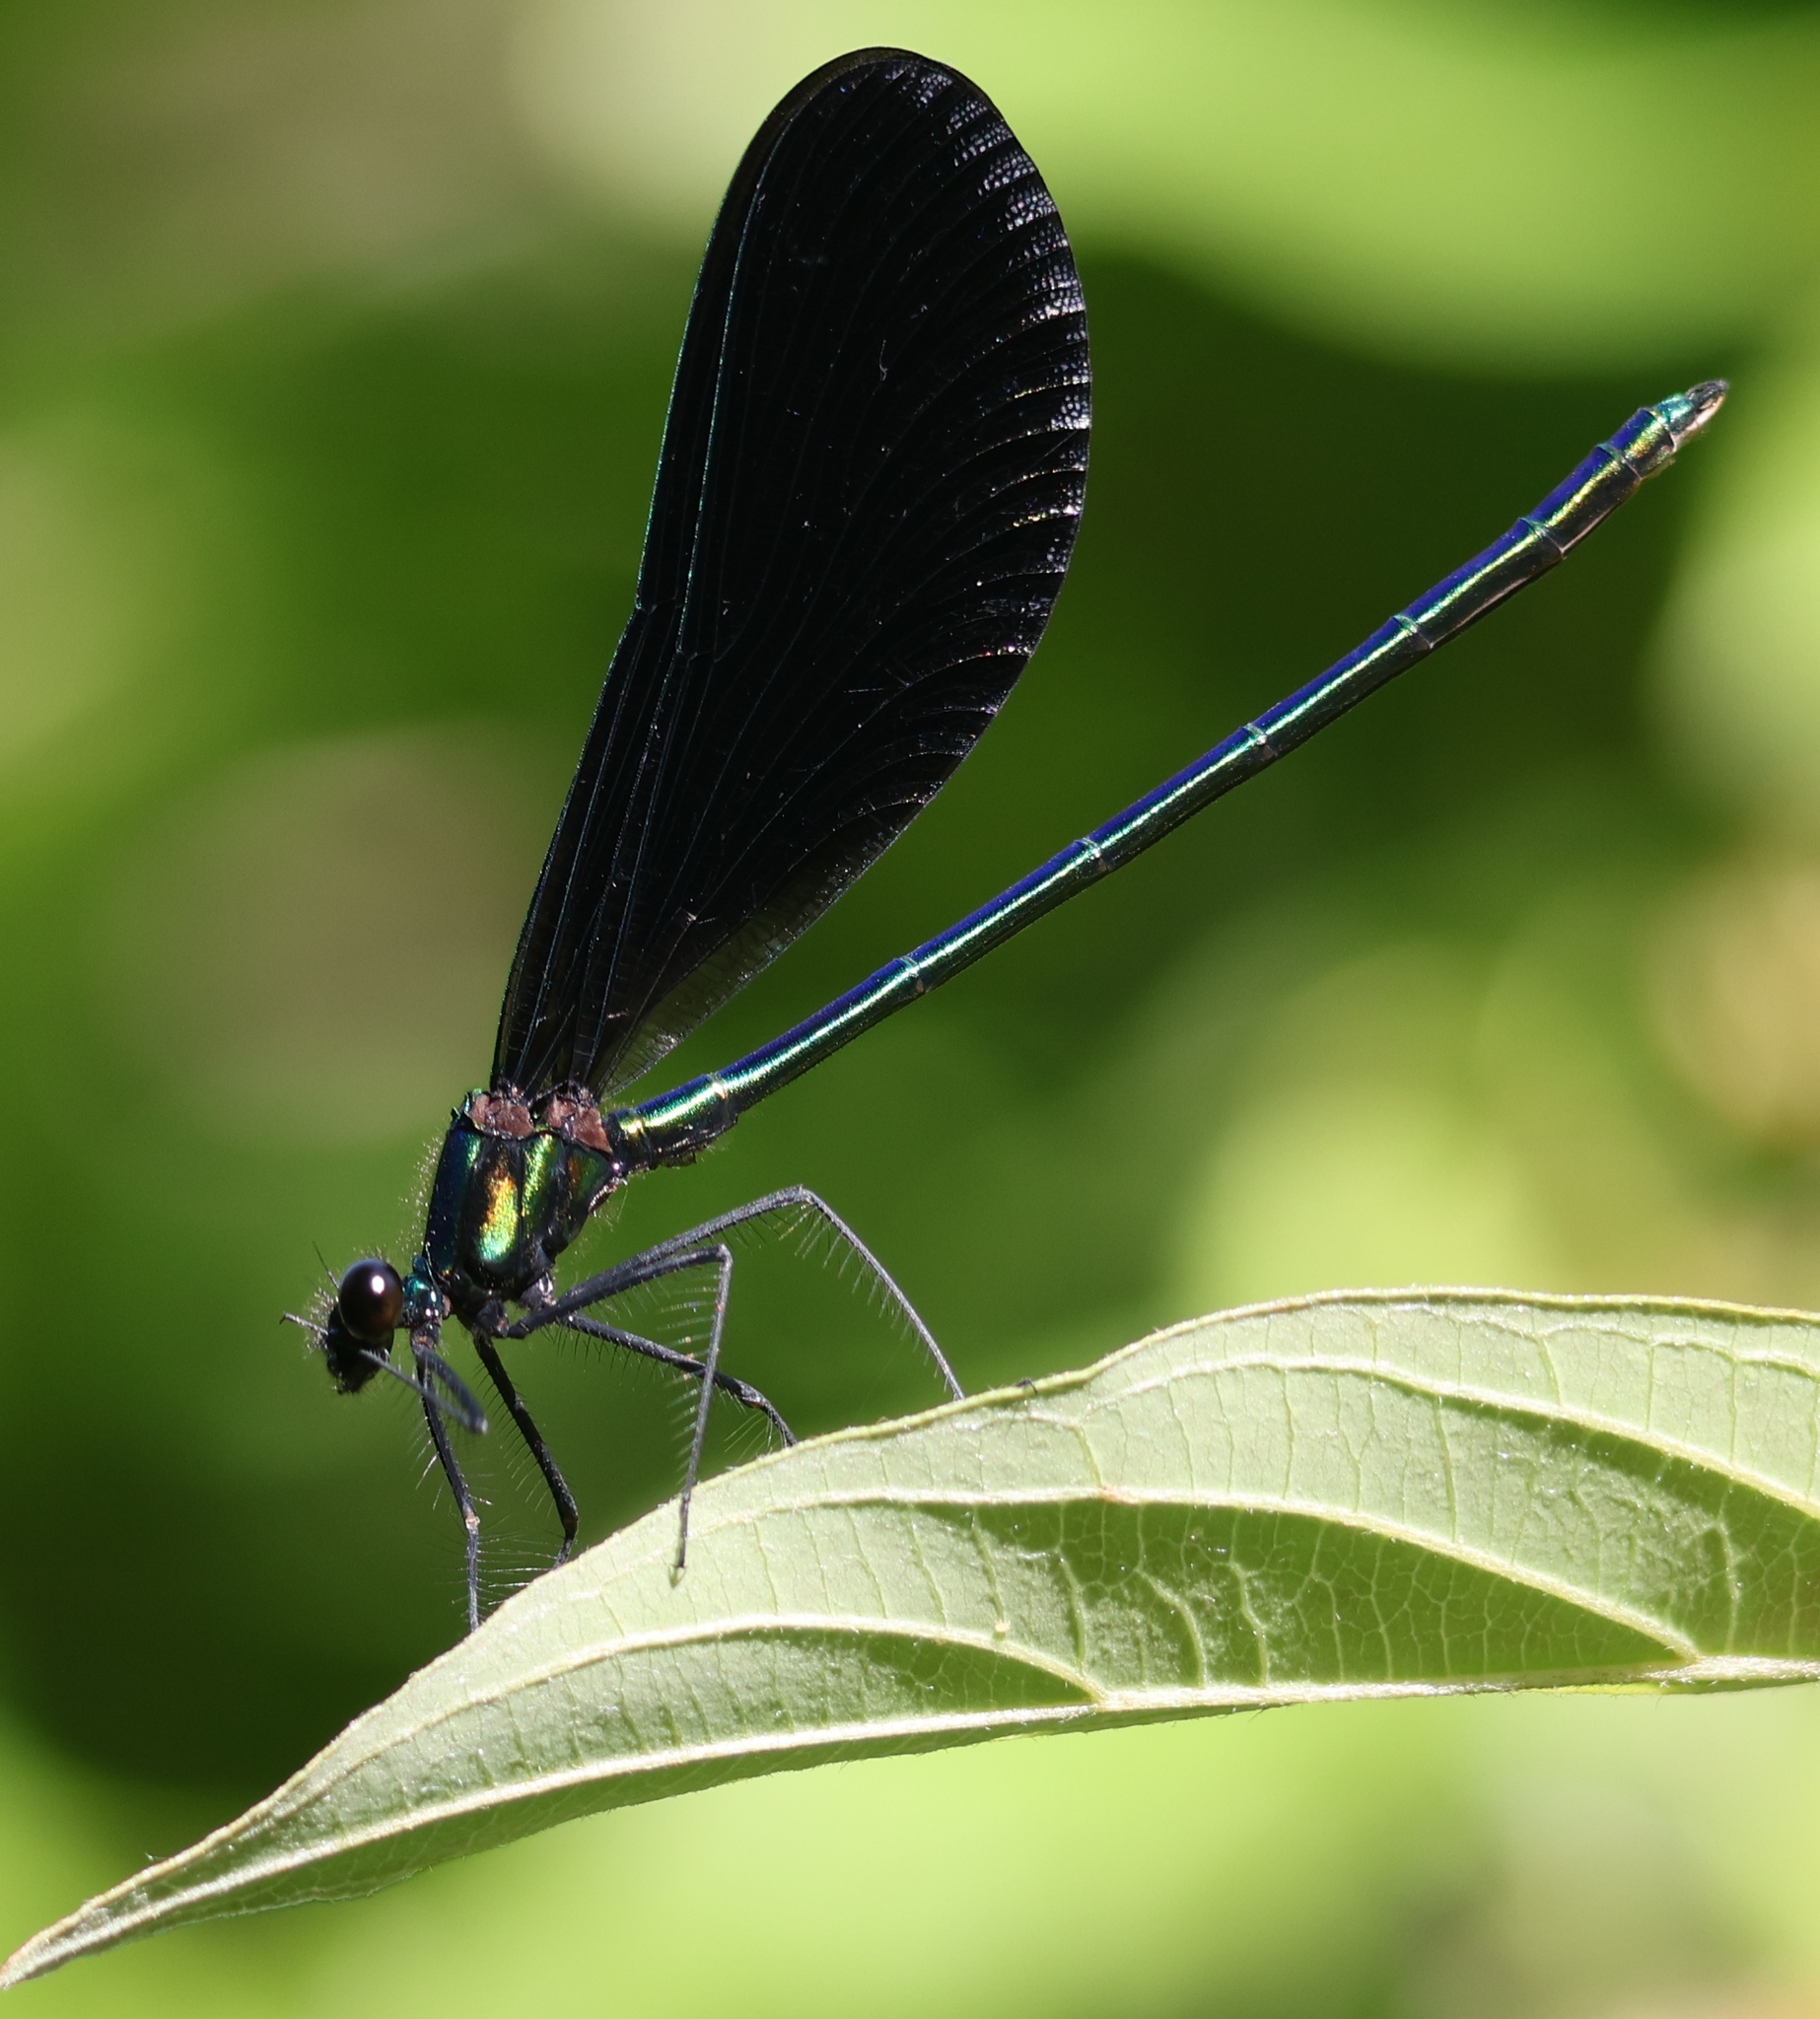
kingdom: Animalia
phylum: Arthropoda
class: Insecta
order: Odonata
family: Calopterygidae
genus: Calopteryx
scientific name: Calopteryx maculata
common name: Ebony jewelwing
